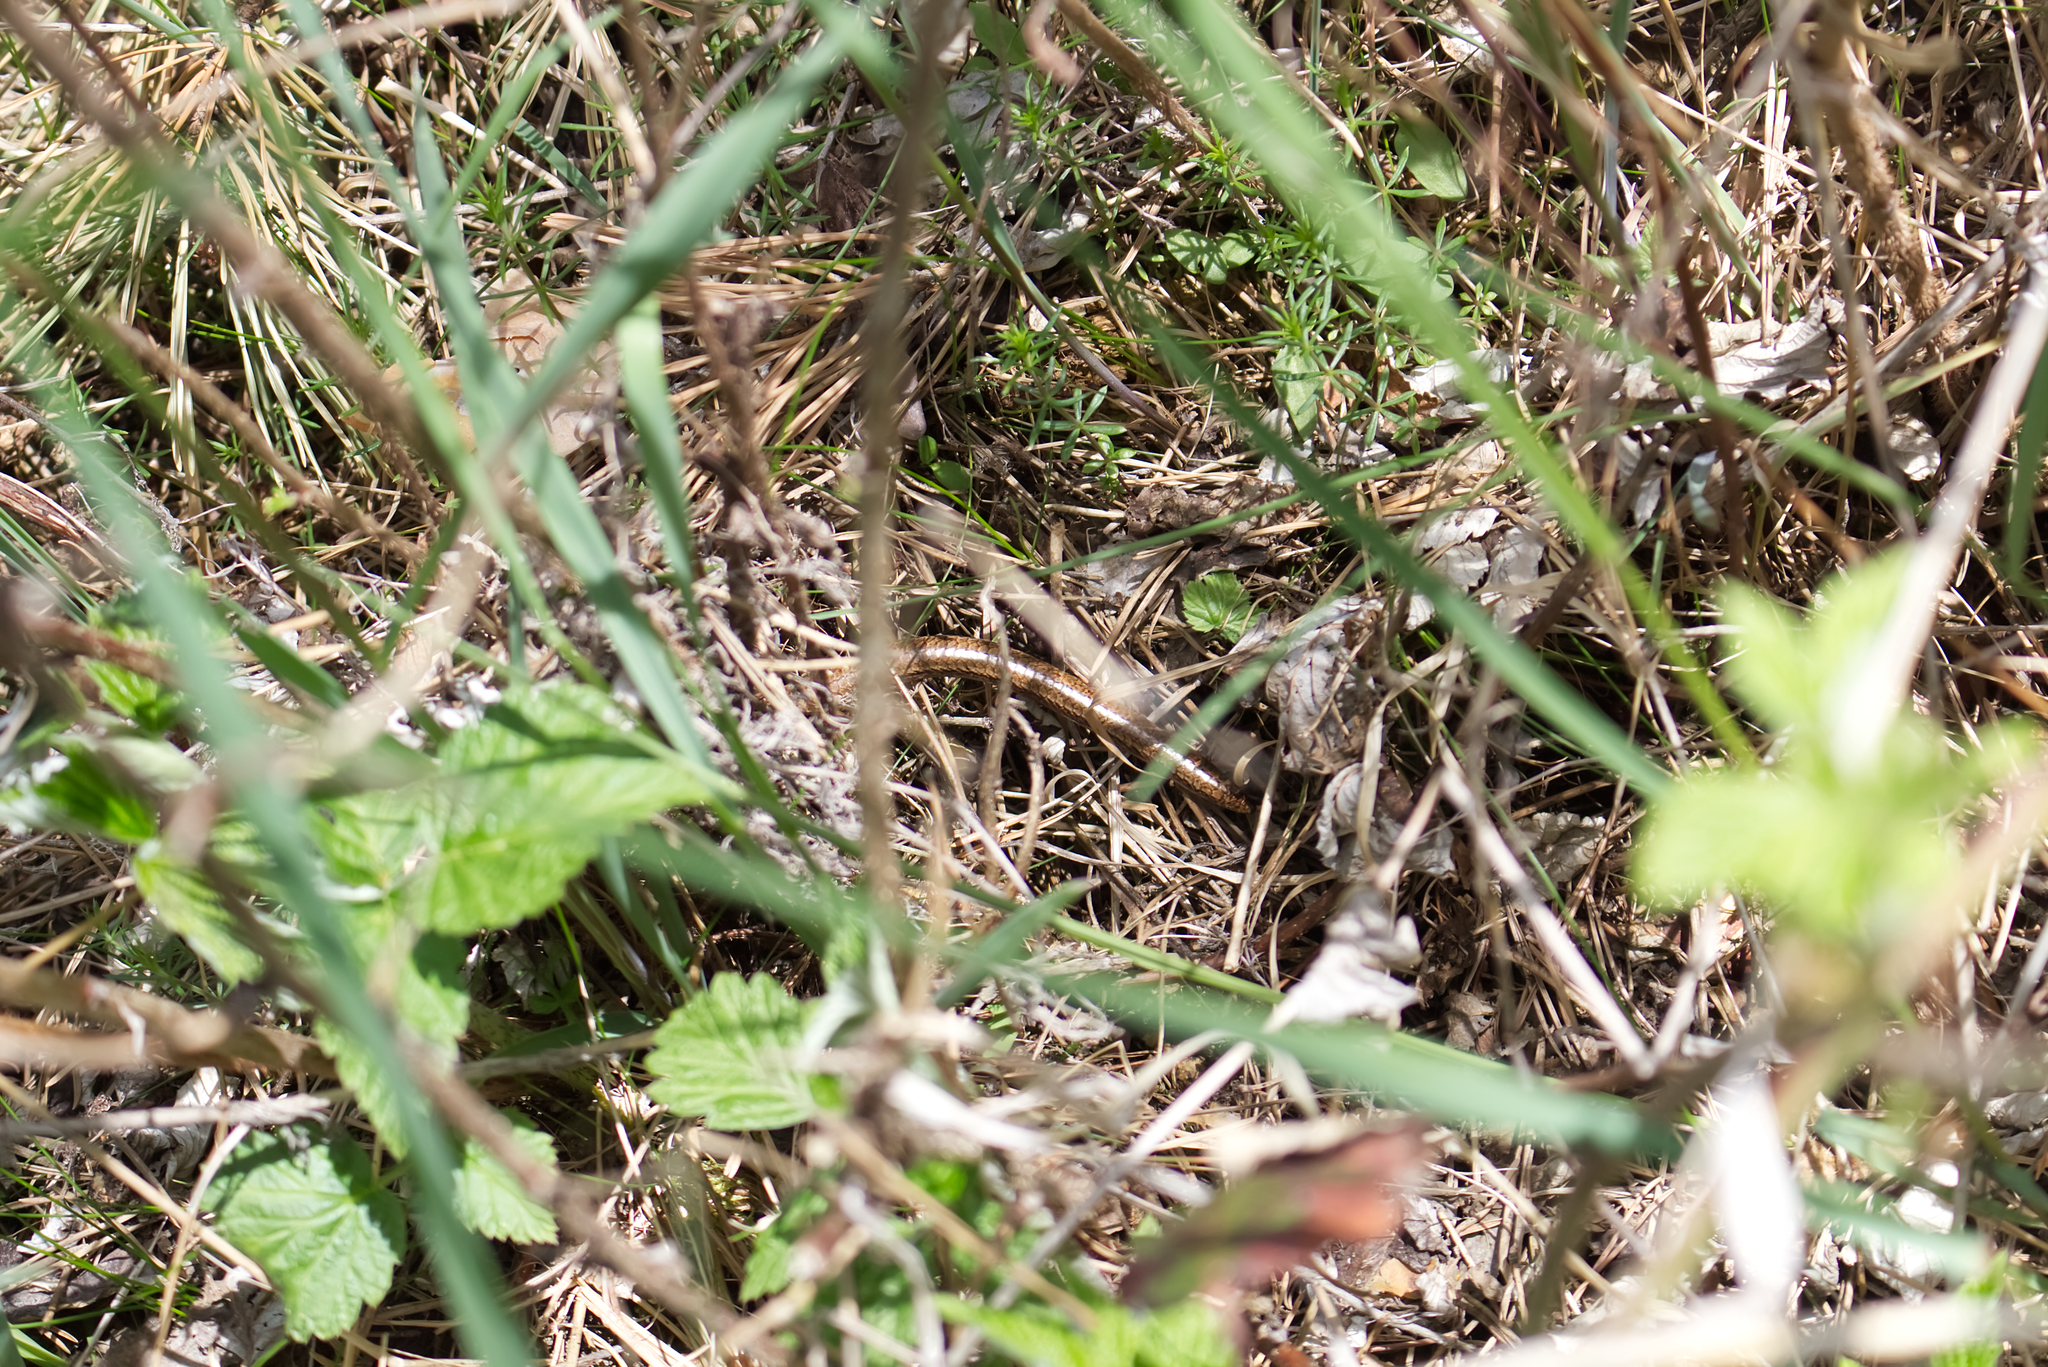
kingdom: Animalia
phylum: Chordata
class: Squamata
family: Anguidae
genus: Anguis
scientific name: Anguis fragilis
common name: Slow worm
